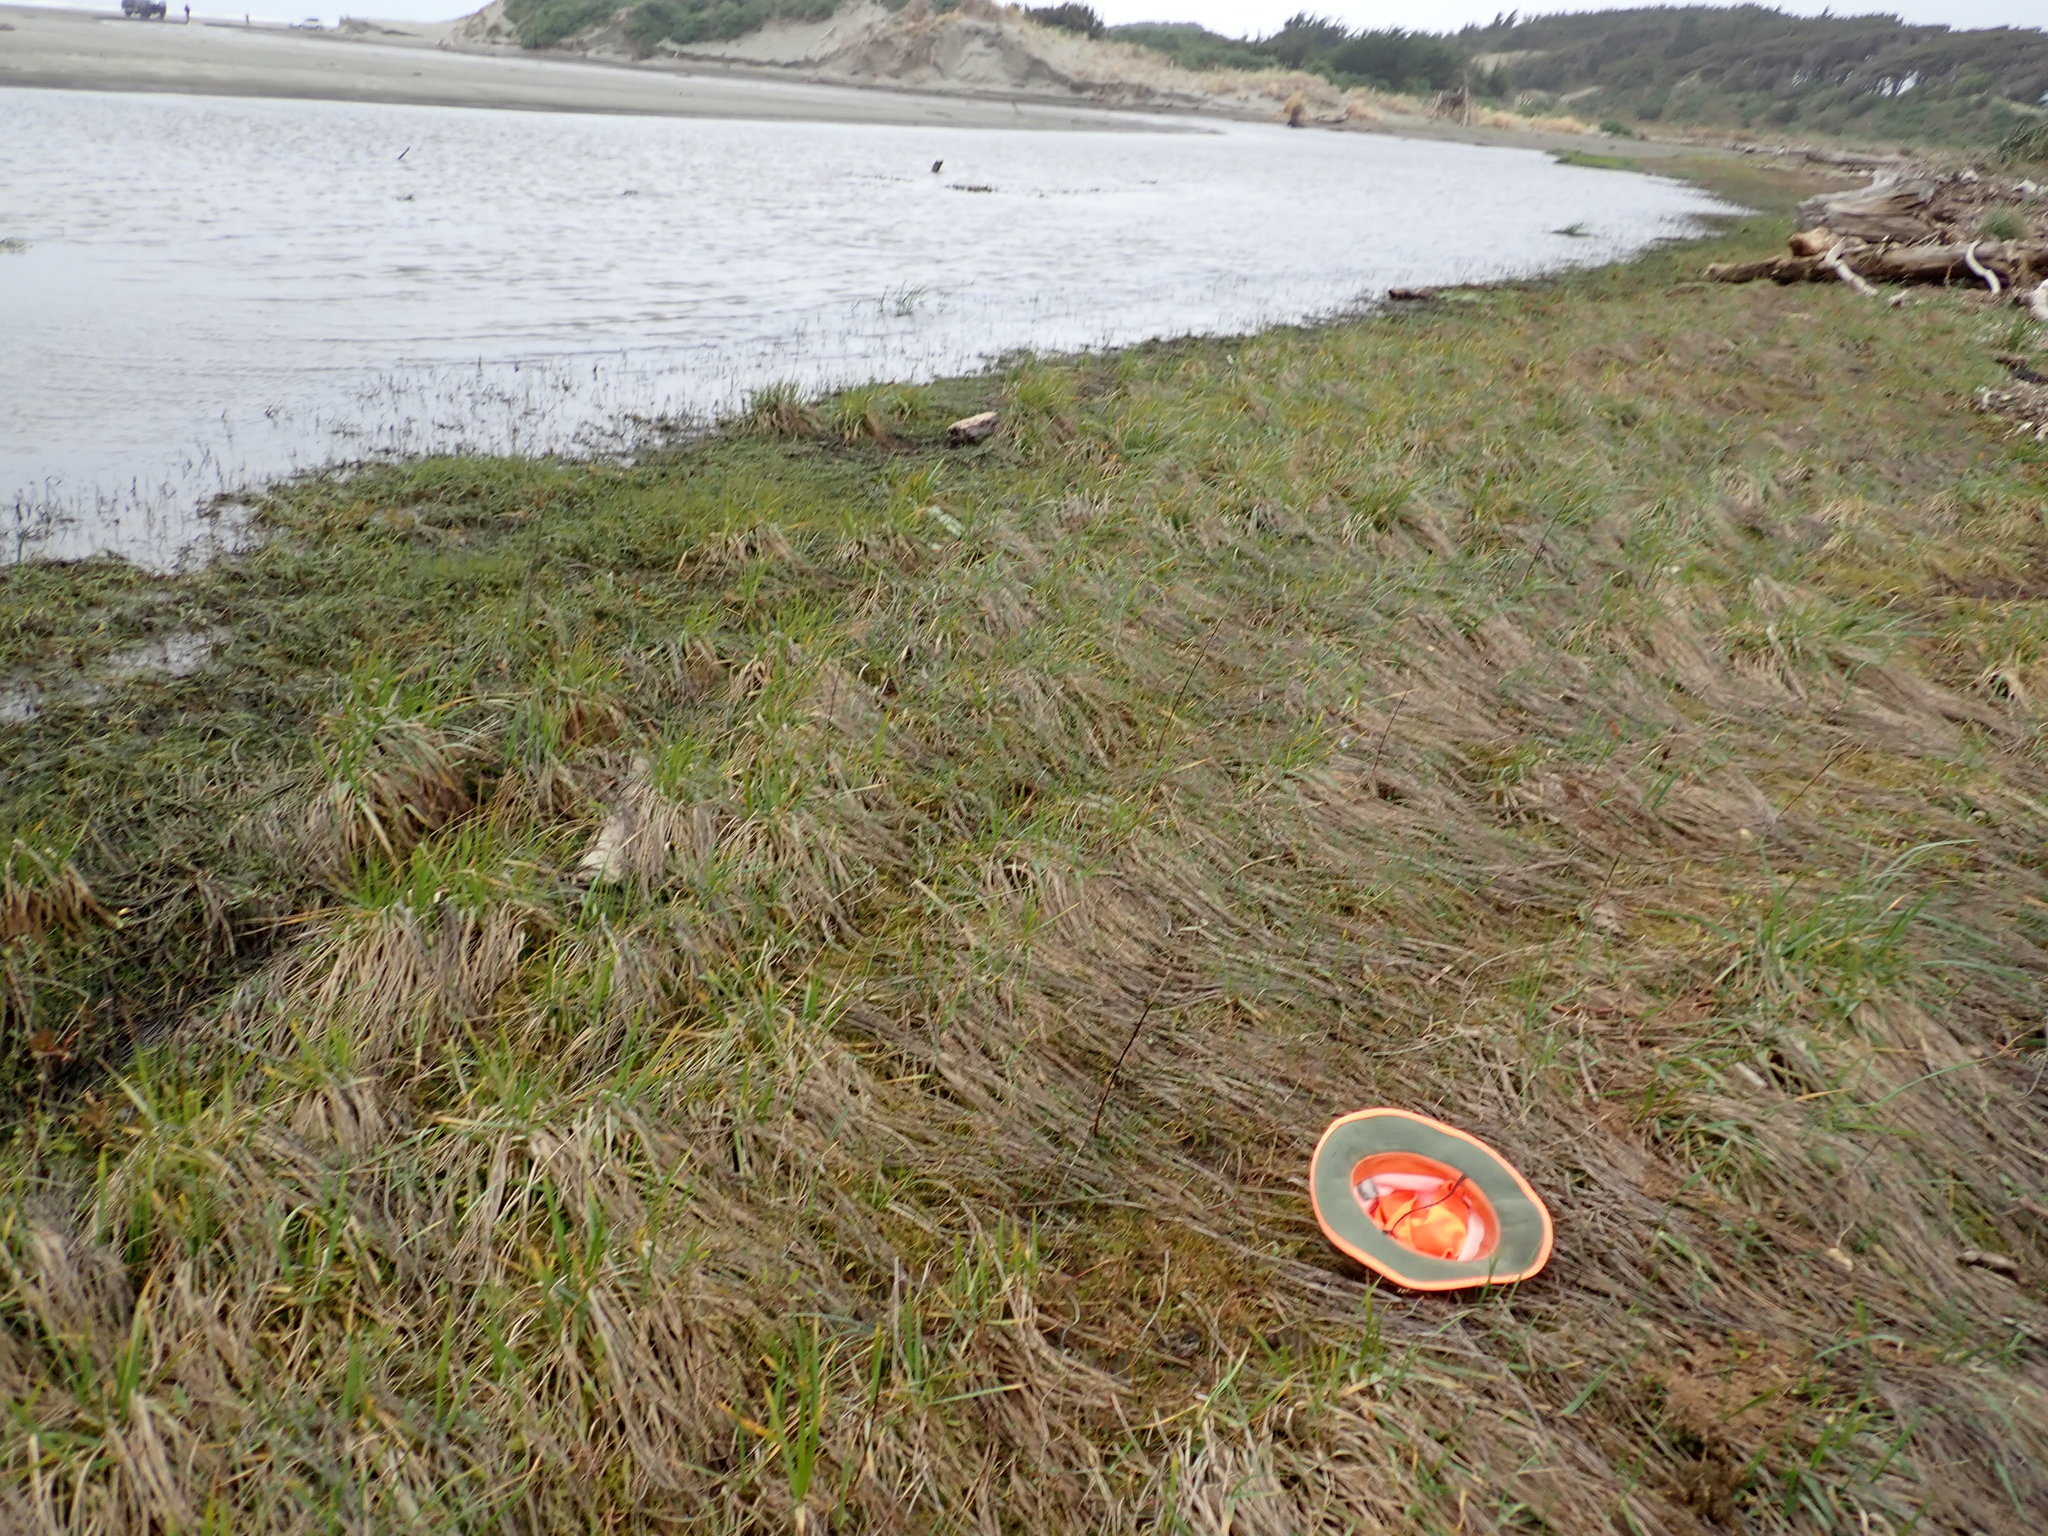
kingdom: Plantae
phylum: Tracheophyta
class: Magnoliopsida
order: Apiales
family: Apiaceae
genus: Lilaeopsis
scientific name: Lilaeopsis novae-zelandiae
